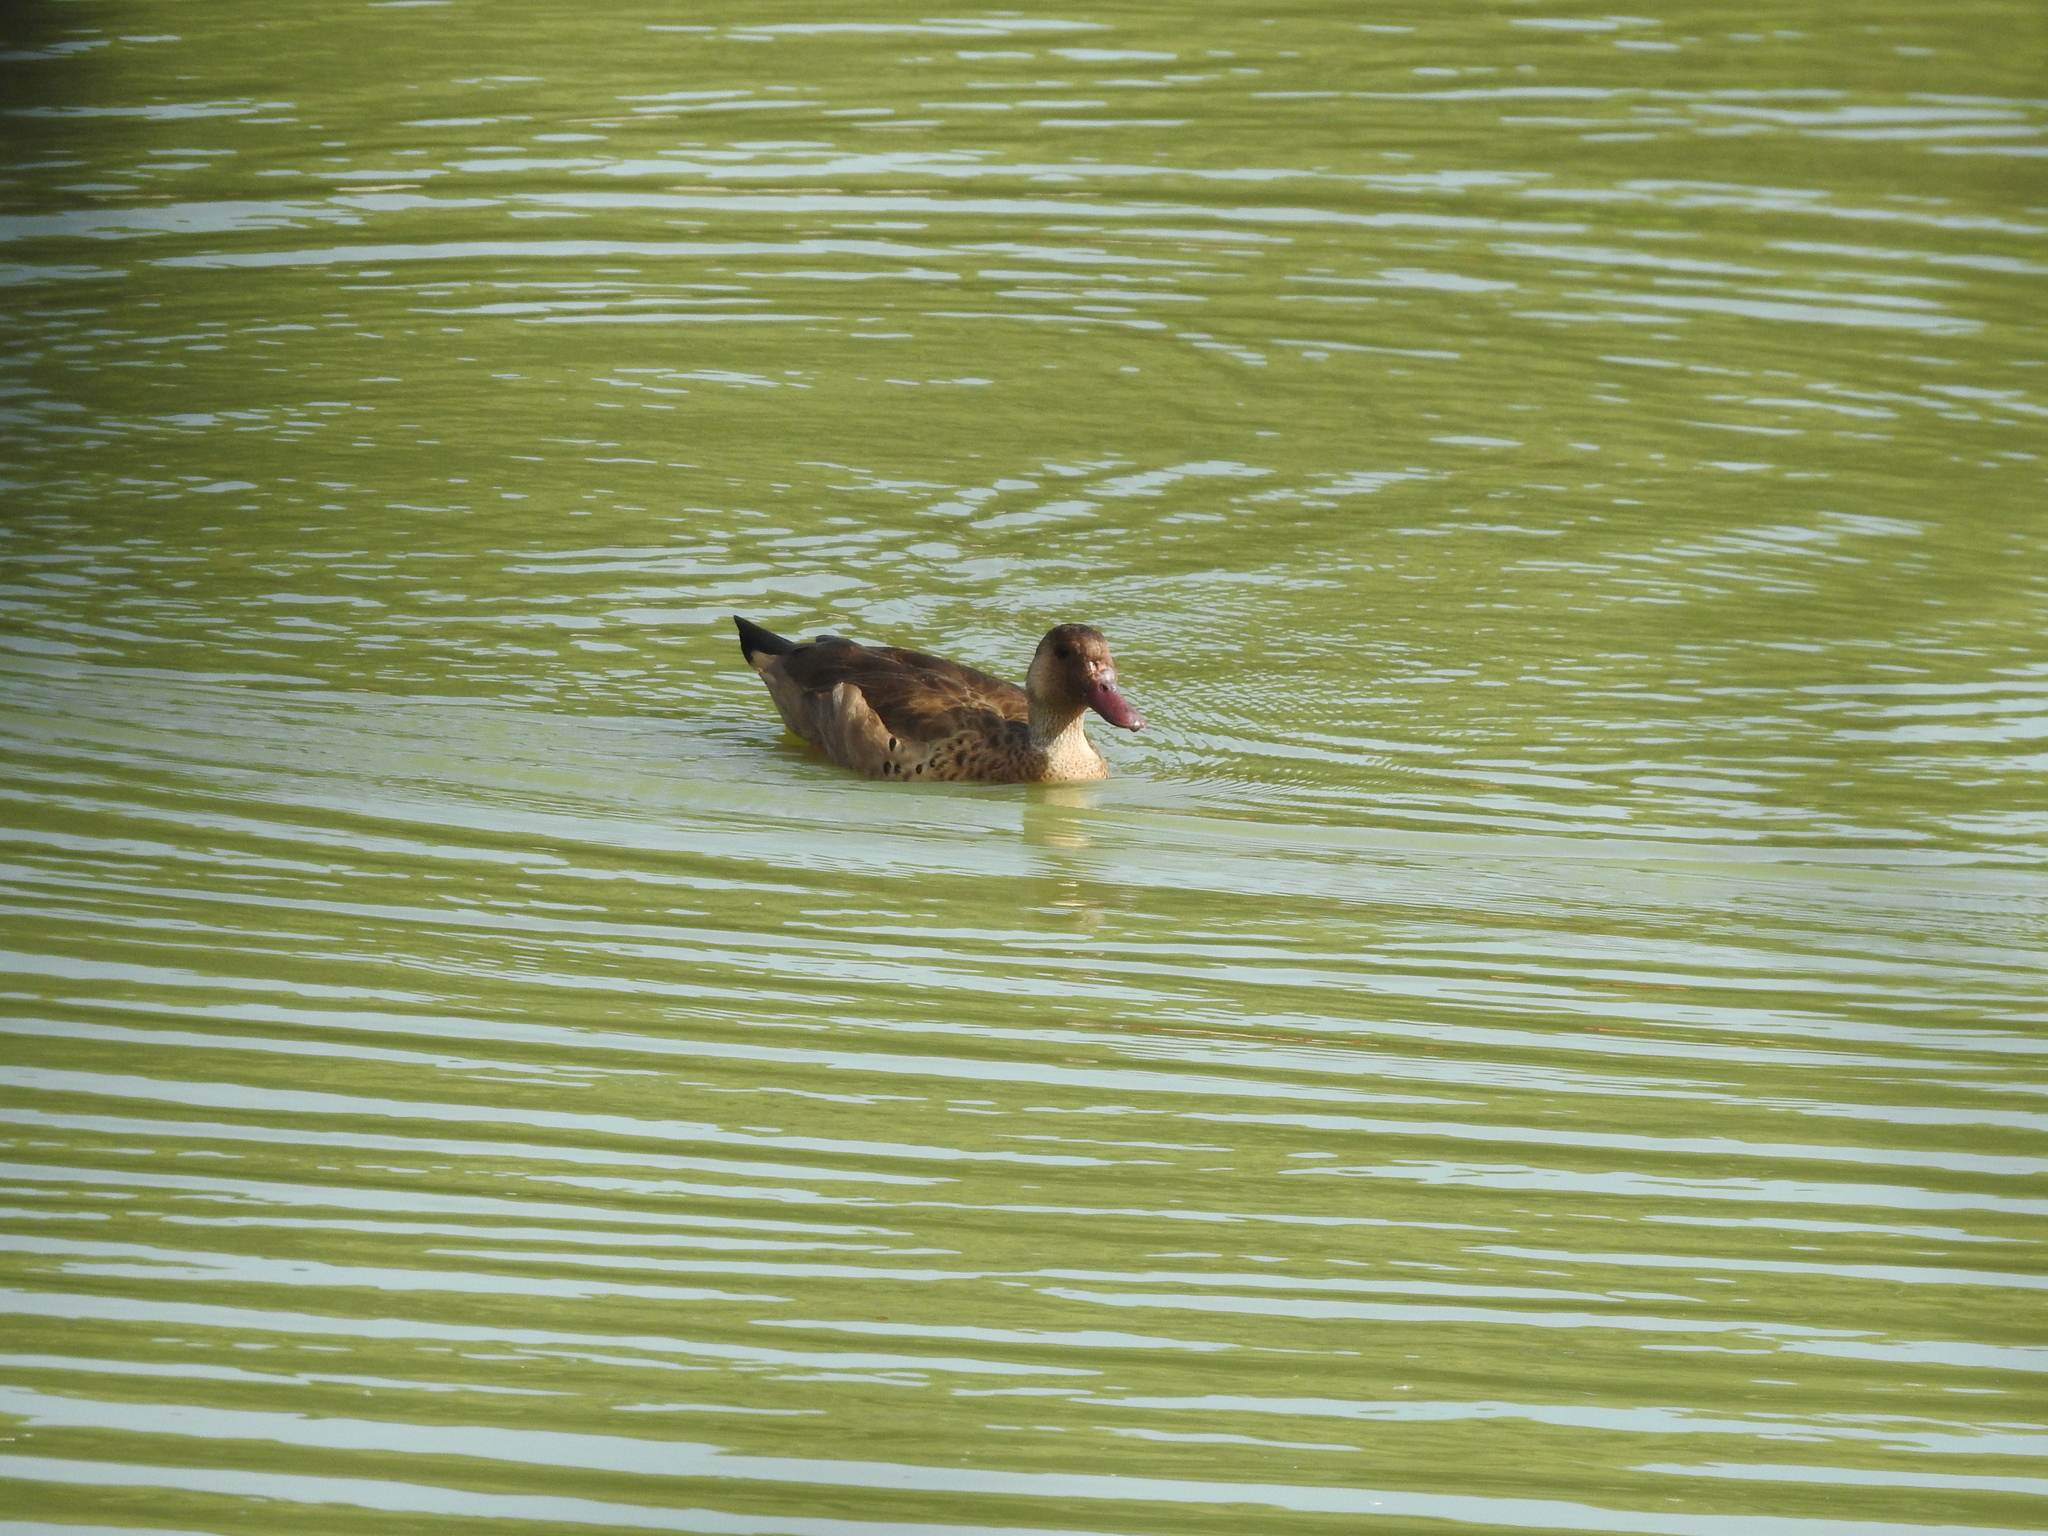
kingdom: Animalia
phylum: Chordata
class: Aves
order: Anseriformes
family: Anatidae
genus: Amazonetta
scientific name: Amazonetta brasiliensis
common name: Brazilian teal
